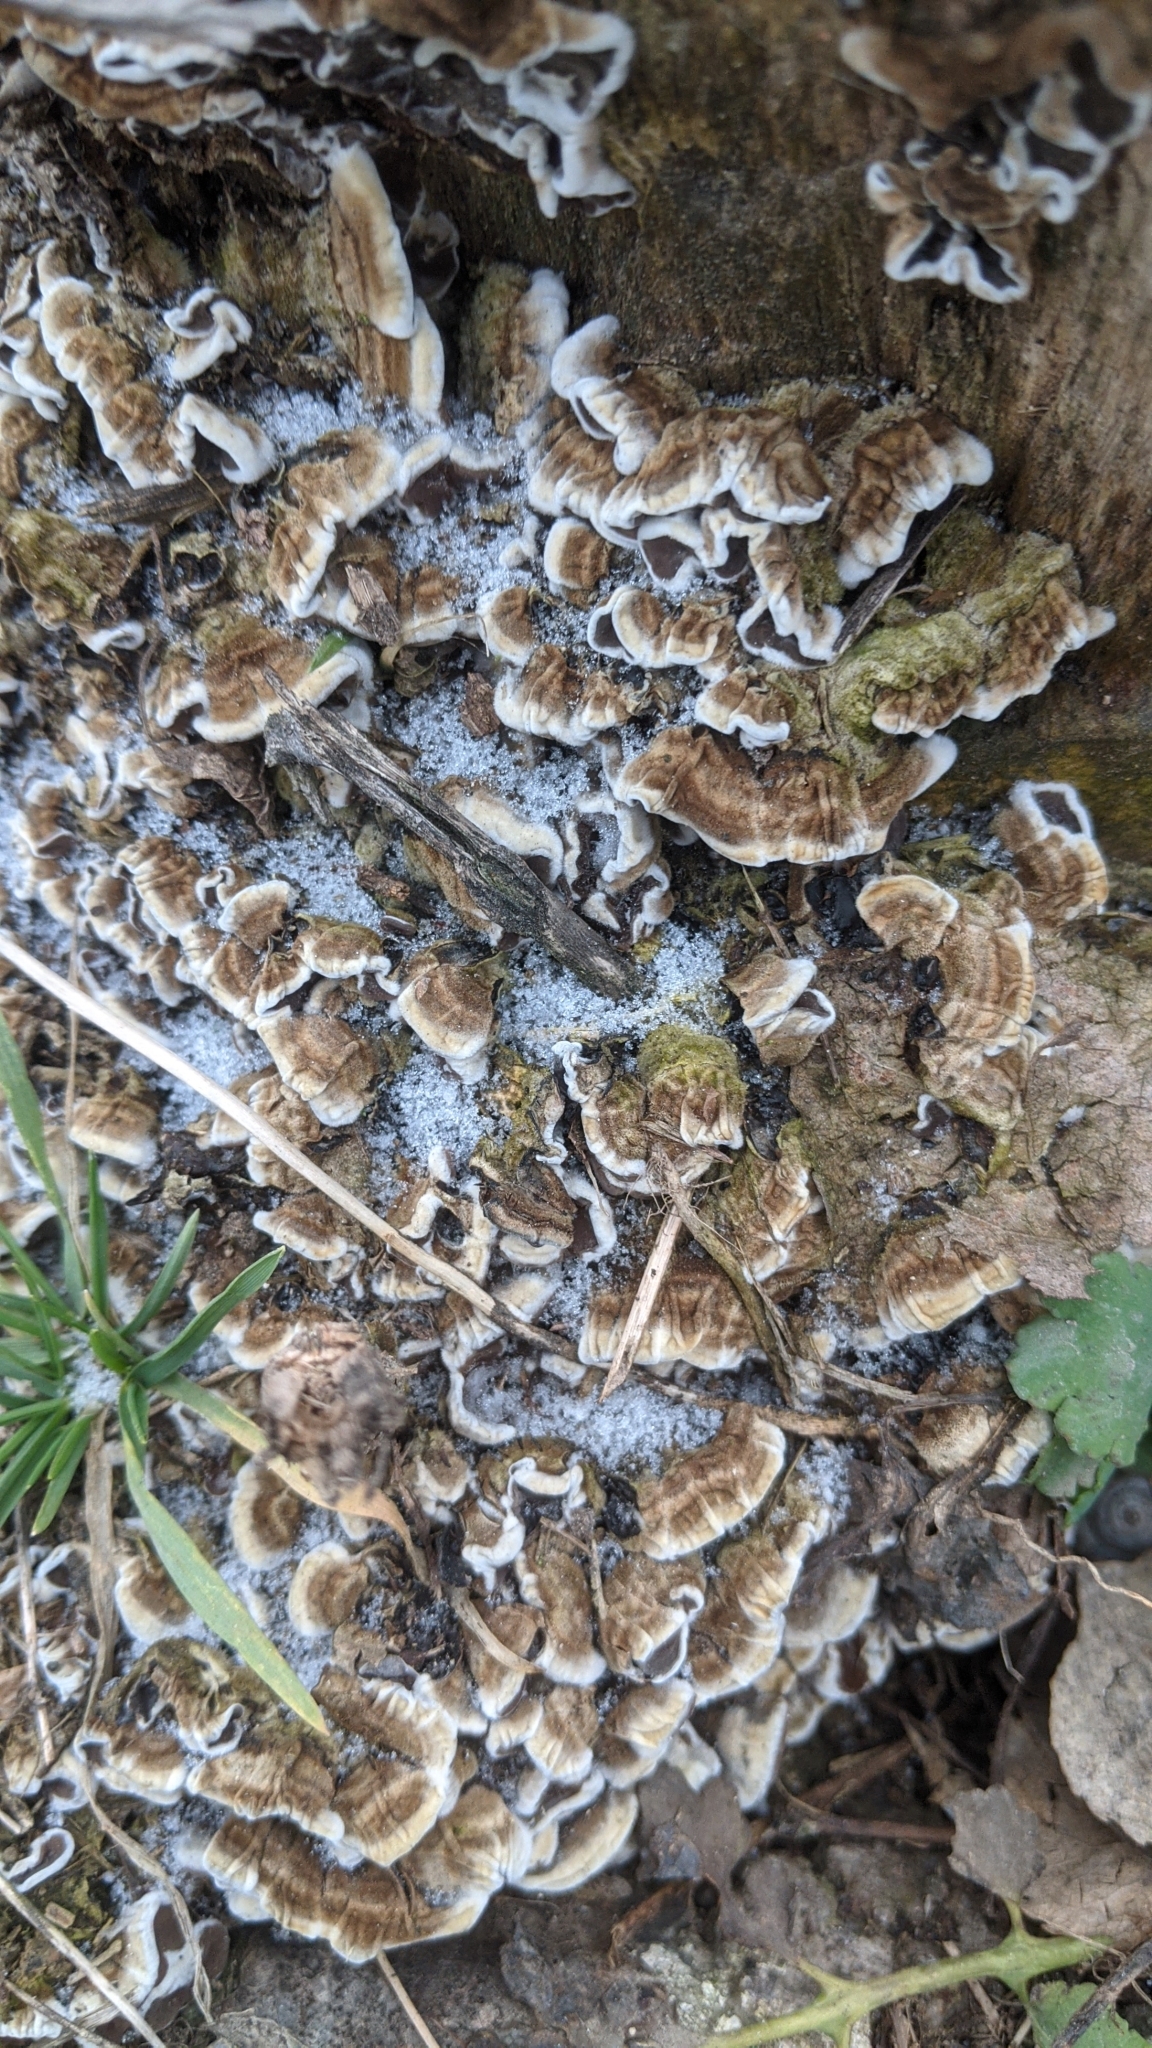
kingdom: Fungi
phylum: Basidiomycota
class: Agaricomycetes
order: Polyporales
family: Polyporaceae
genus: Trametes
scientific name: Trametes versicolor
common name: Turkeytail
